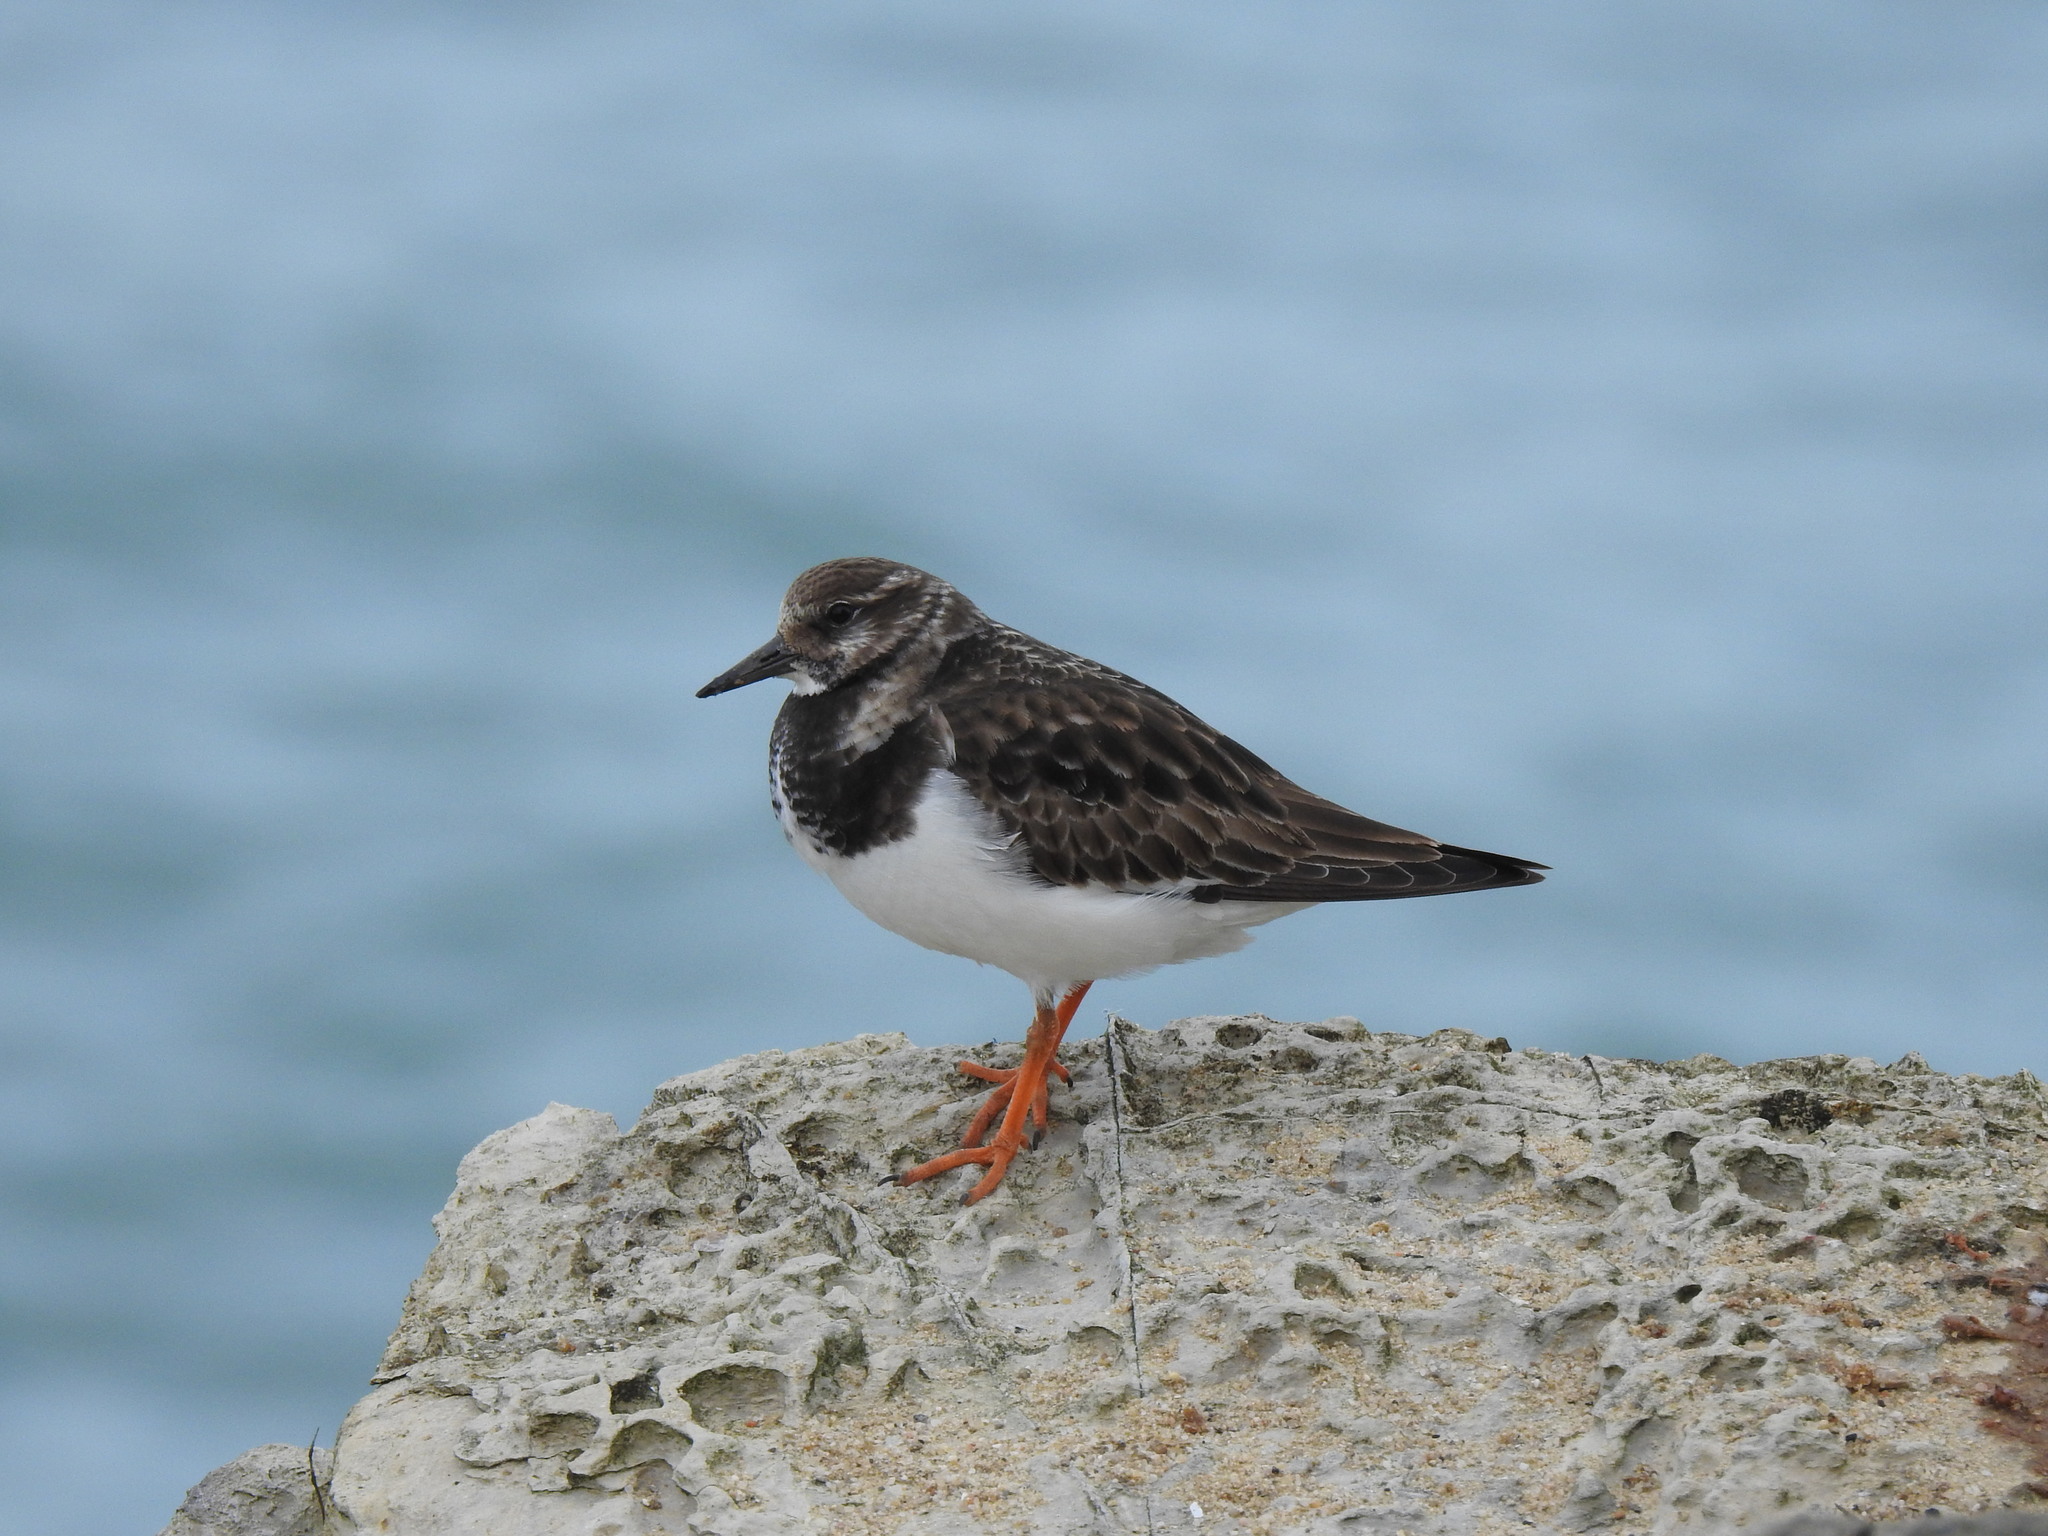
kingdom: Animalia
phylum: Chordata
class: Aves
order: Charadriiformes
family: Scolopacidae
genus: Arenaria
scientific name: Arenaria interpres
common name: Ruddy turnstone
